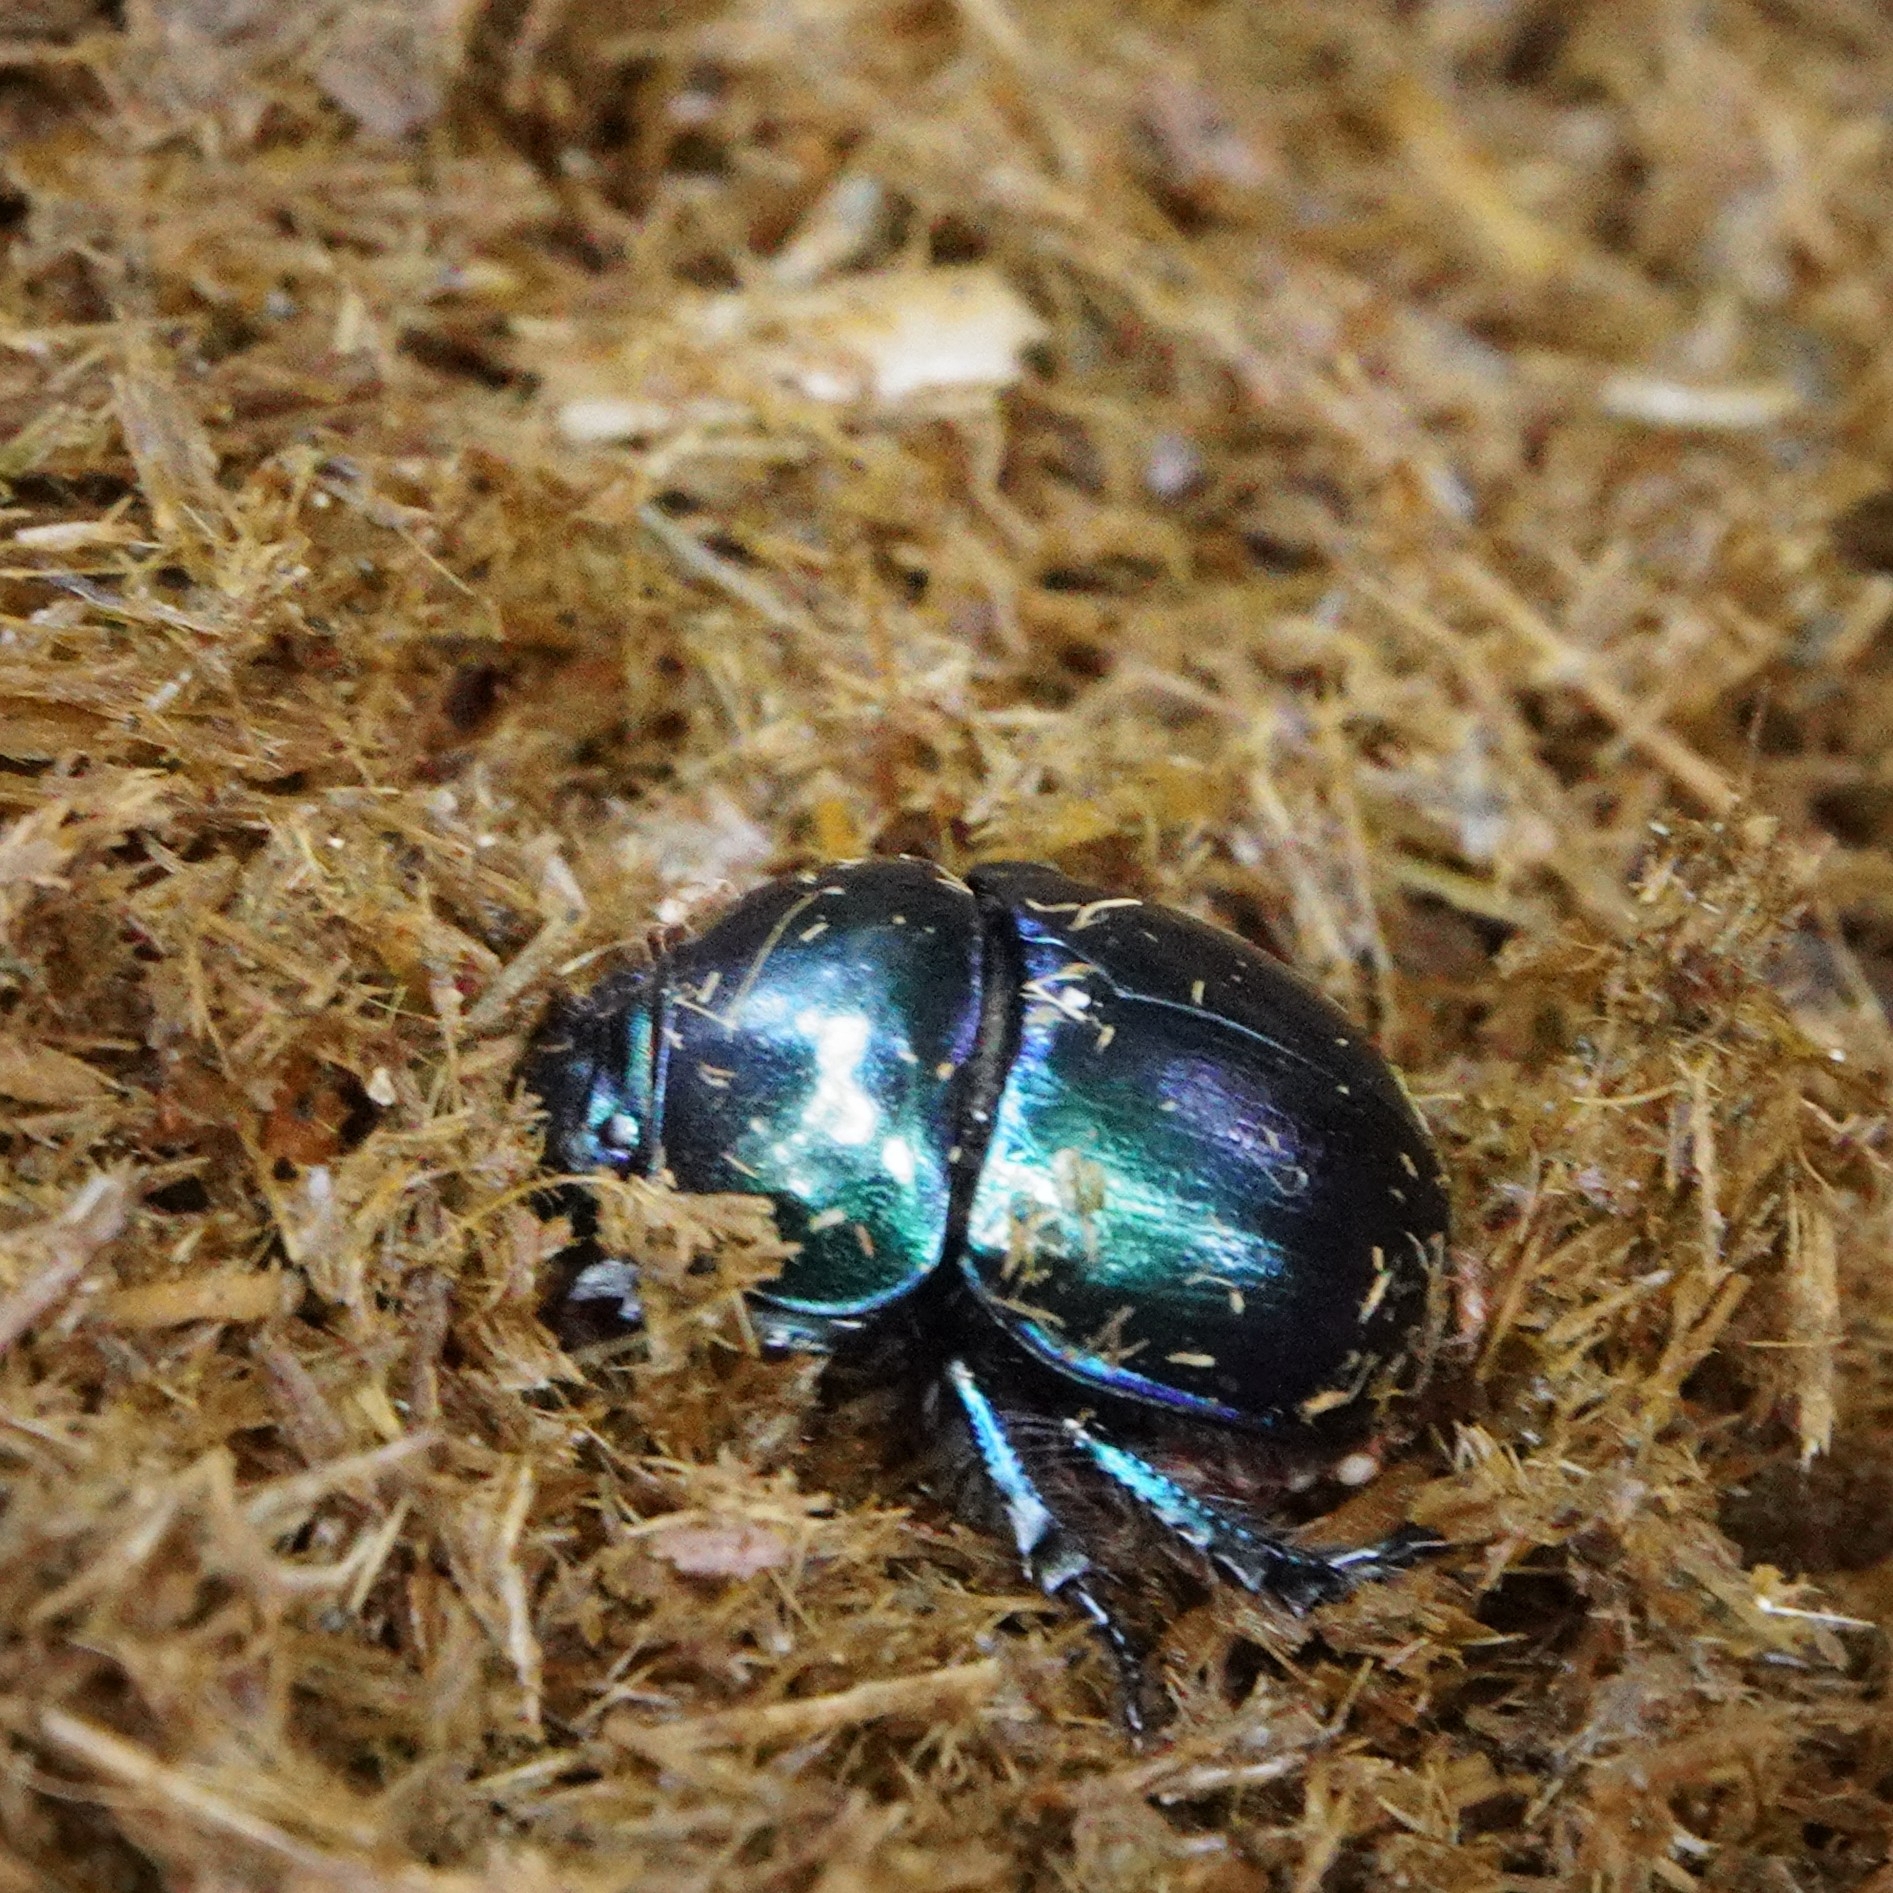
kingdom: Animalia
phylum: Arthropoda
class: Insecta
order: Coleoptera
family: Geotrupidae
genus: Trypocopris
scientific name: Trypocopris vernalis
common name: Spring dumbledor
